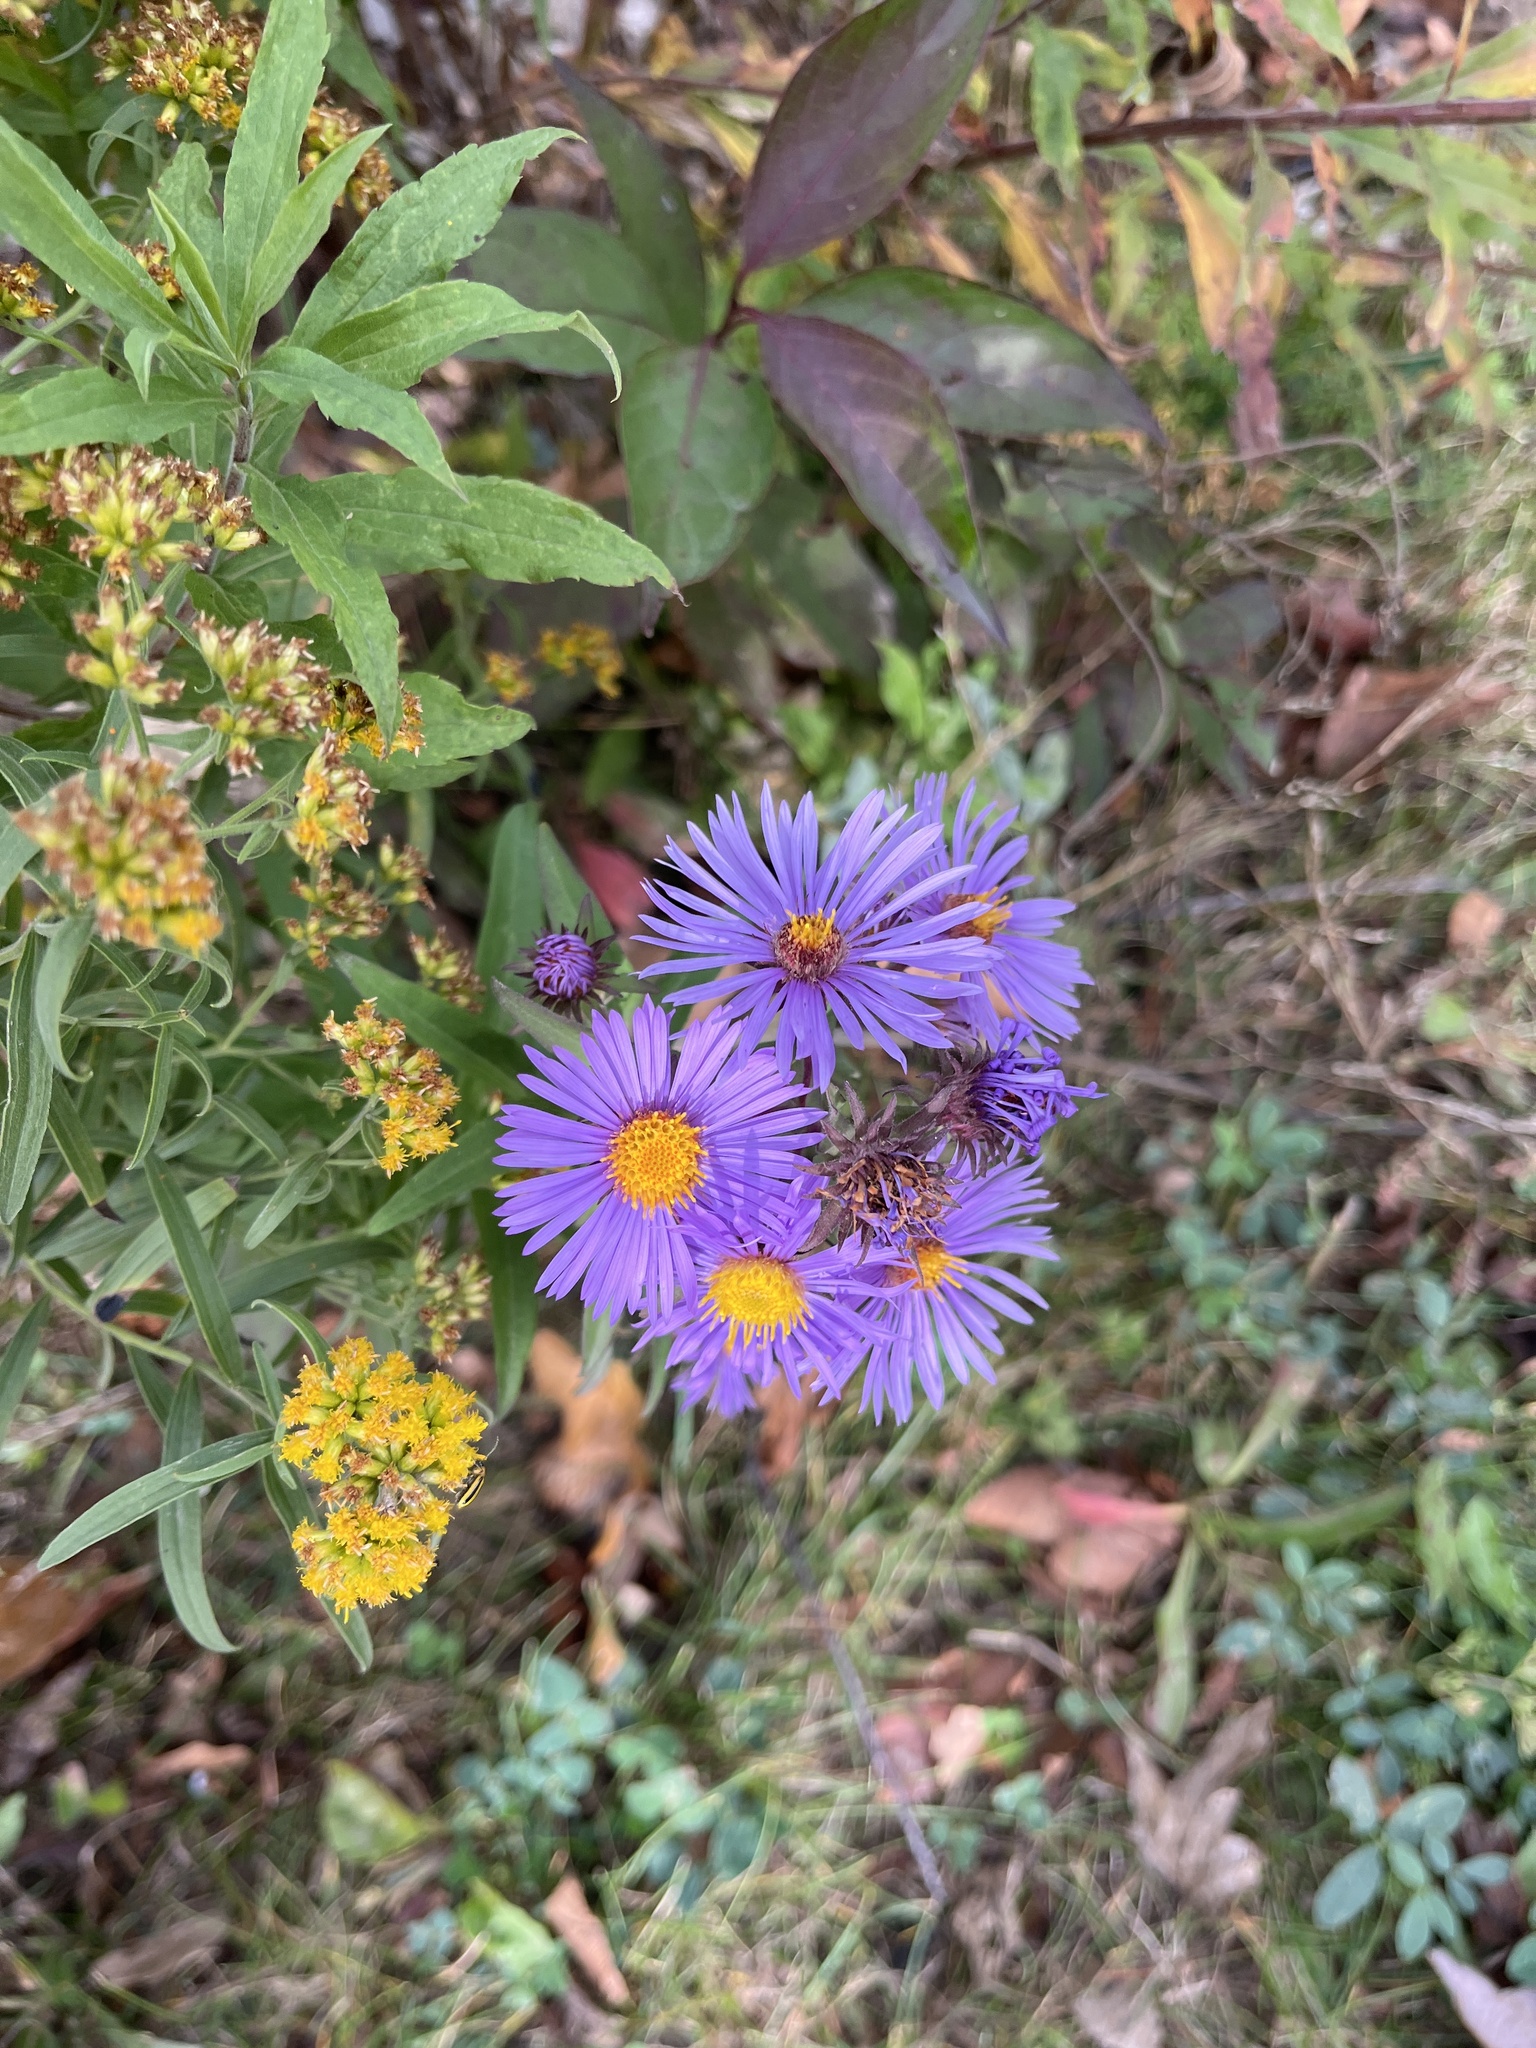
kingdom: Plantae
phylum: Tracheophyta
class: Magnoliopsida
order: Asterales
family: Asteraceae
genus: Symphyotrichum
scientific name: Symphyotrichum novae-angliae
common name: Michaelmas daisy
